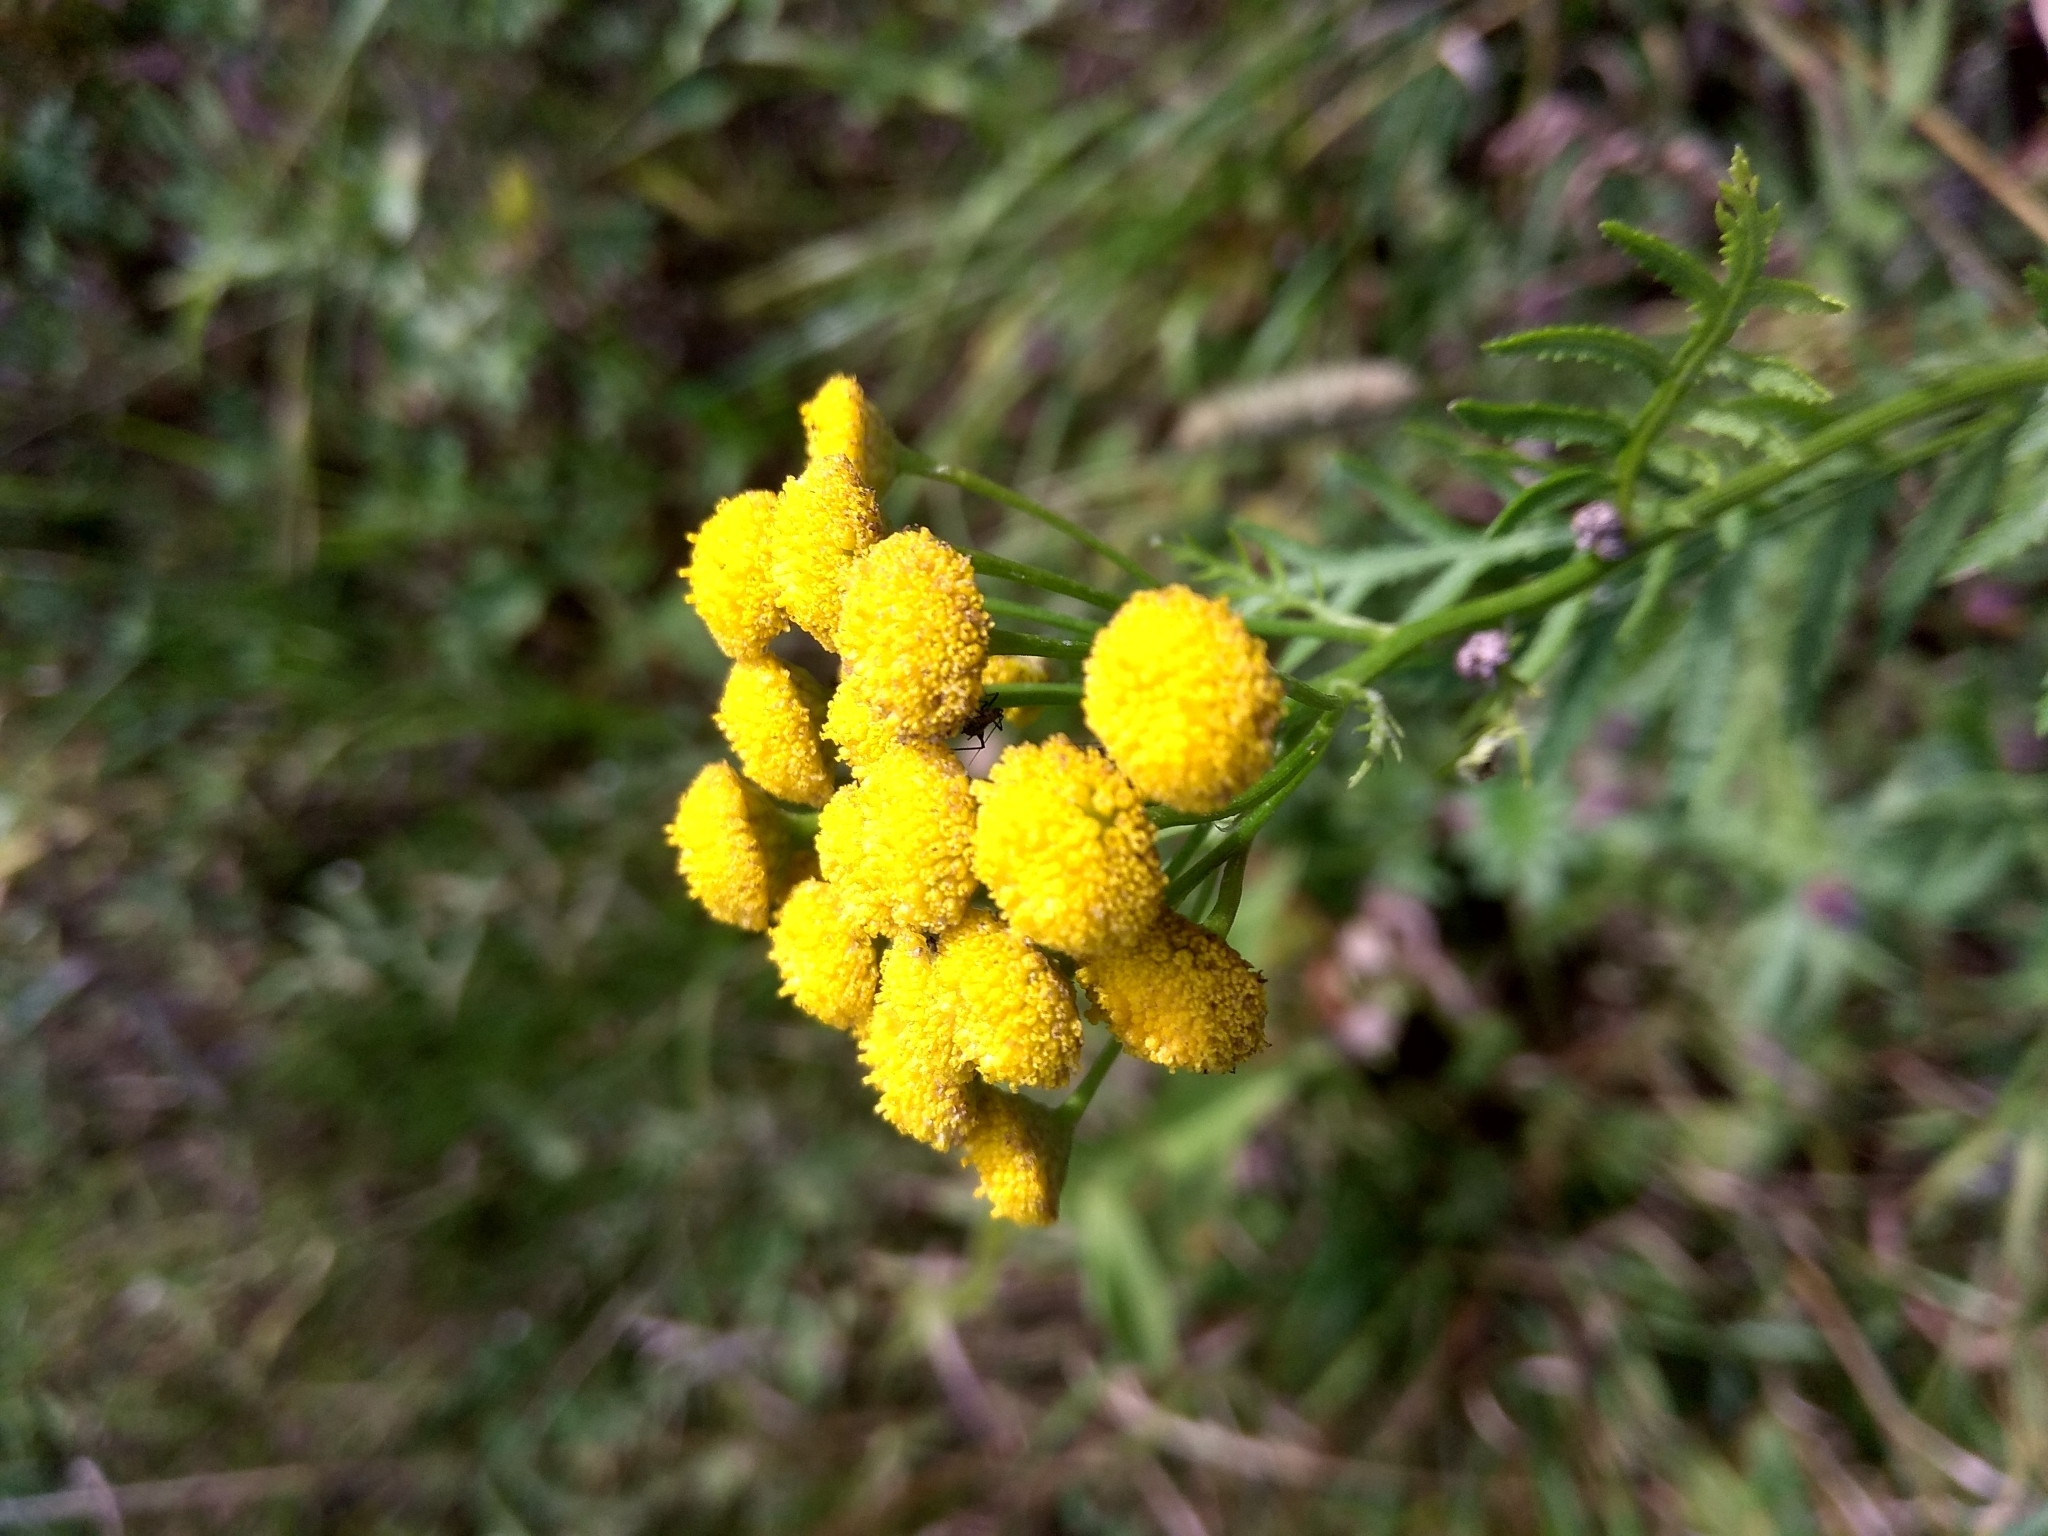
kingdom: Plantae
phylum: Tracheophyta
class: Magnoliopsida
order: Asterales
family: Asteraceae
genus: Tanacetum
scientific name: Tanacetum vulgare
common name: Common tansy
